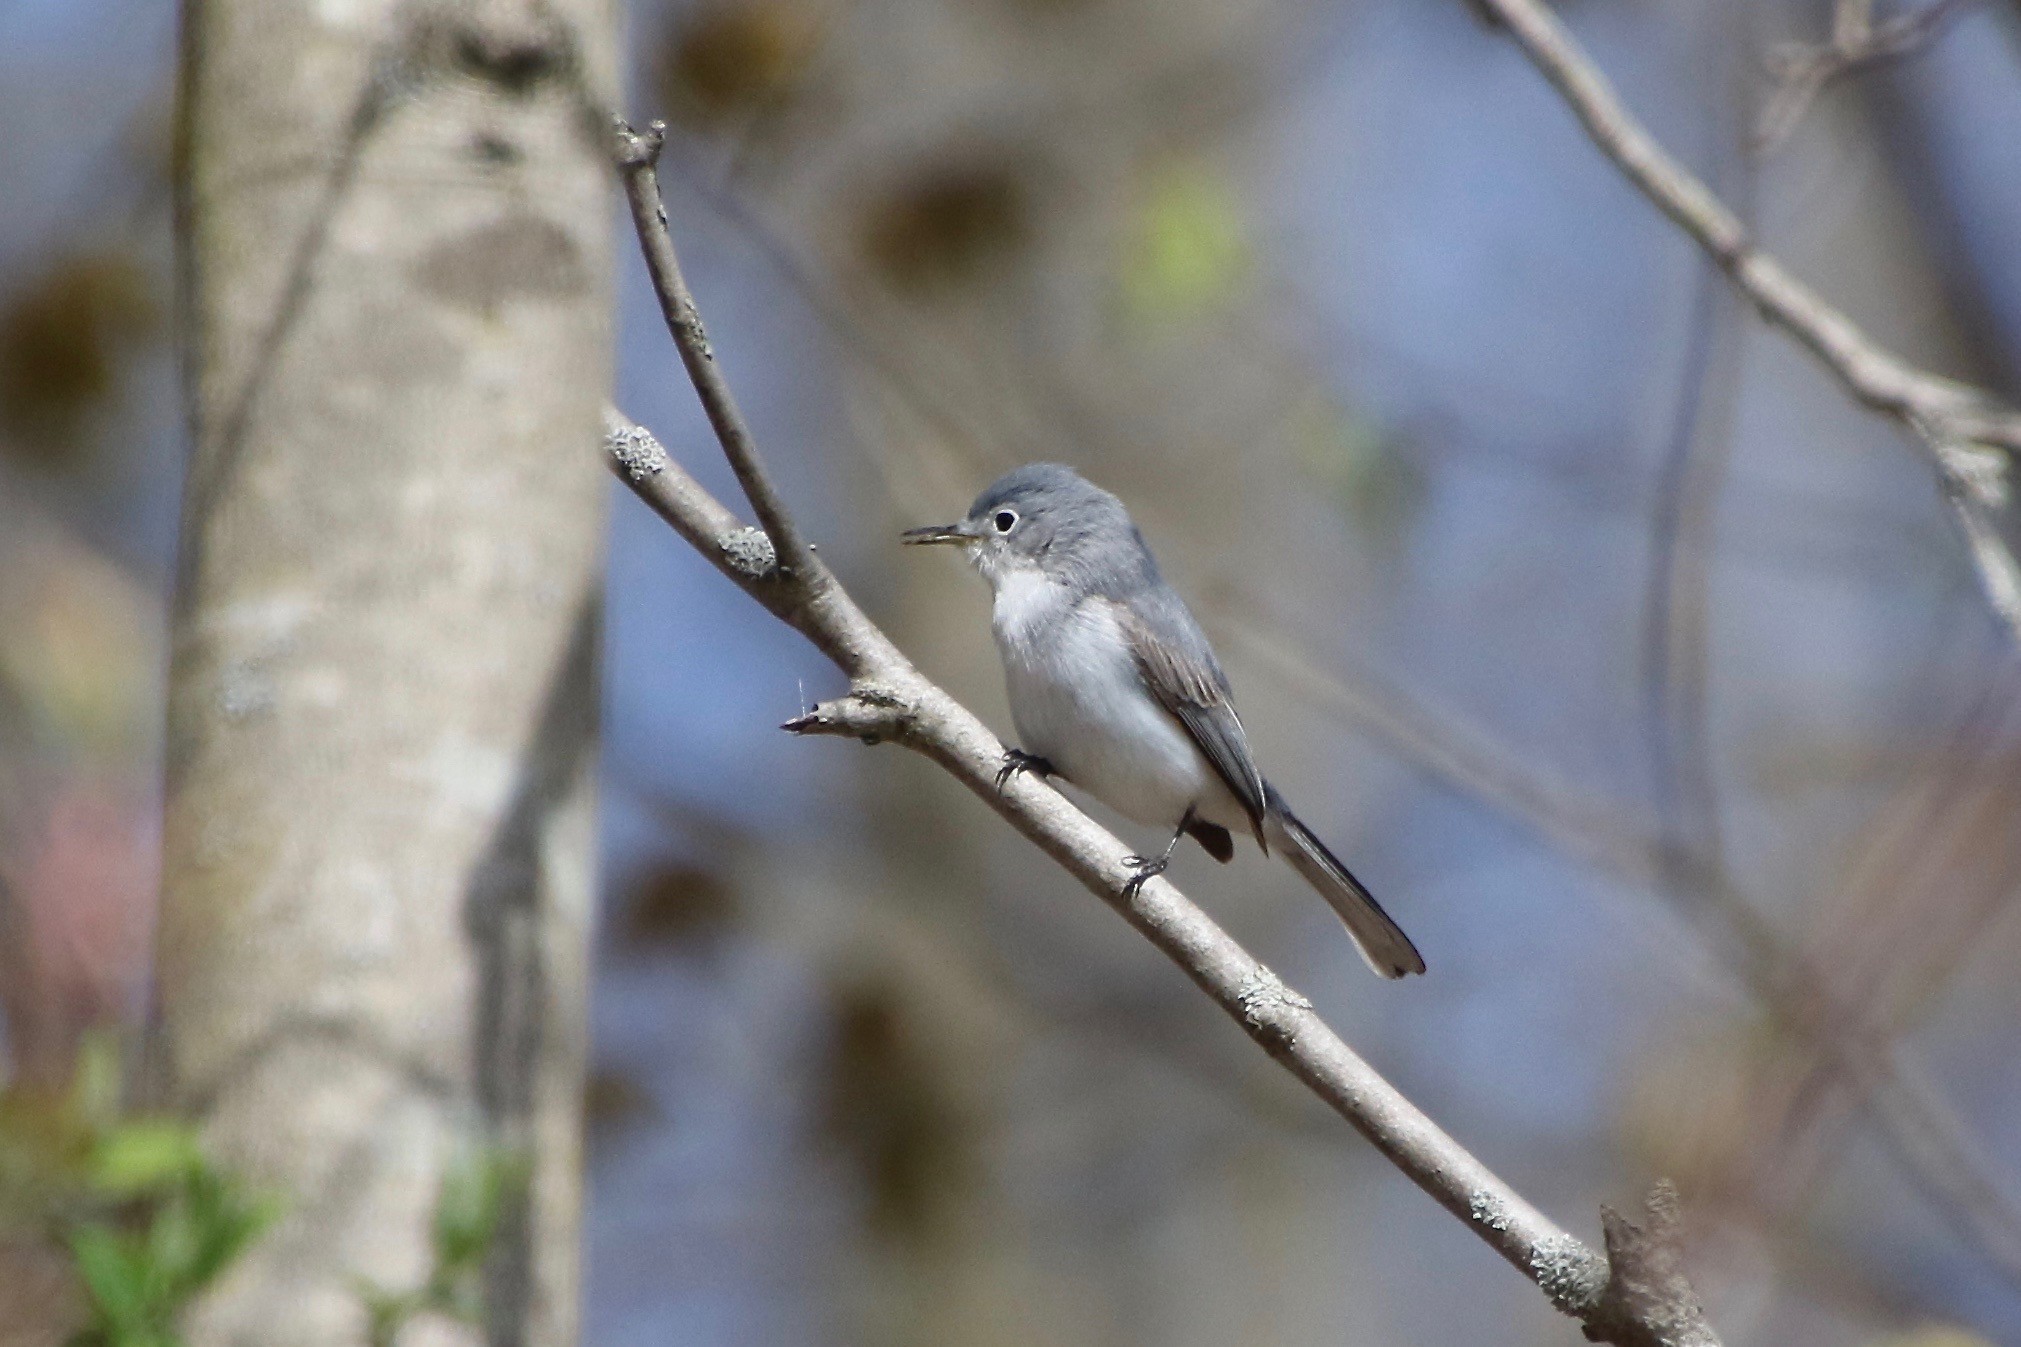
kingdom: Animalia
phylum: Chordata
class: Aves
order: Passeriformes
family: Polioptilidae
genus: Polioptila
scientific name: Polioptila caerulea
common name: Blue-gray gnatcatcher
